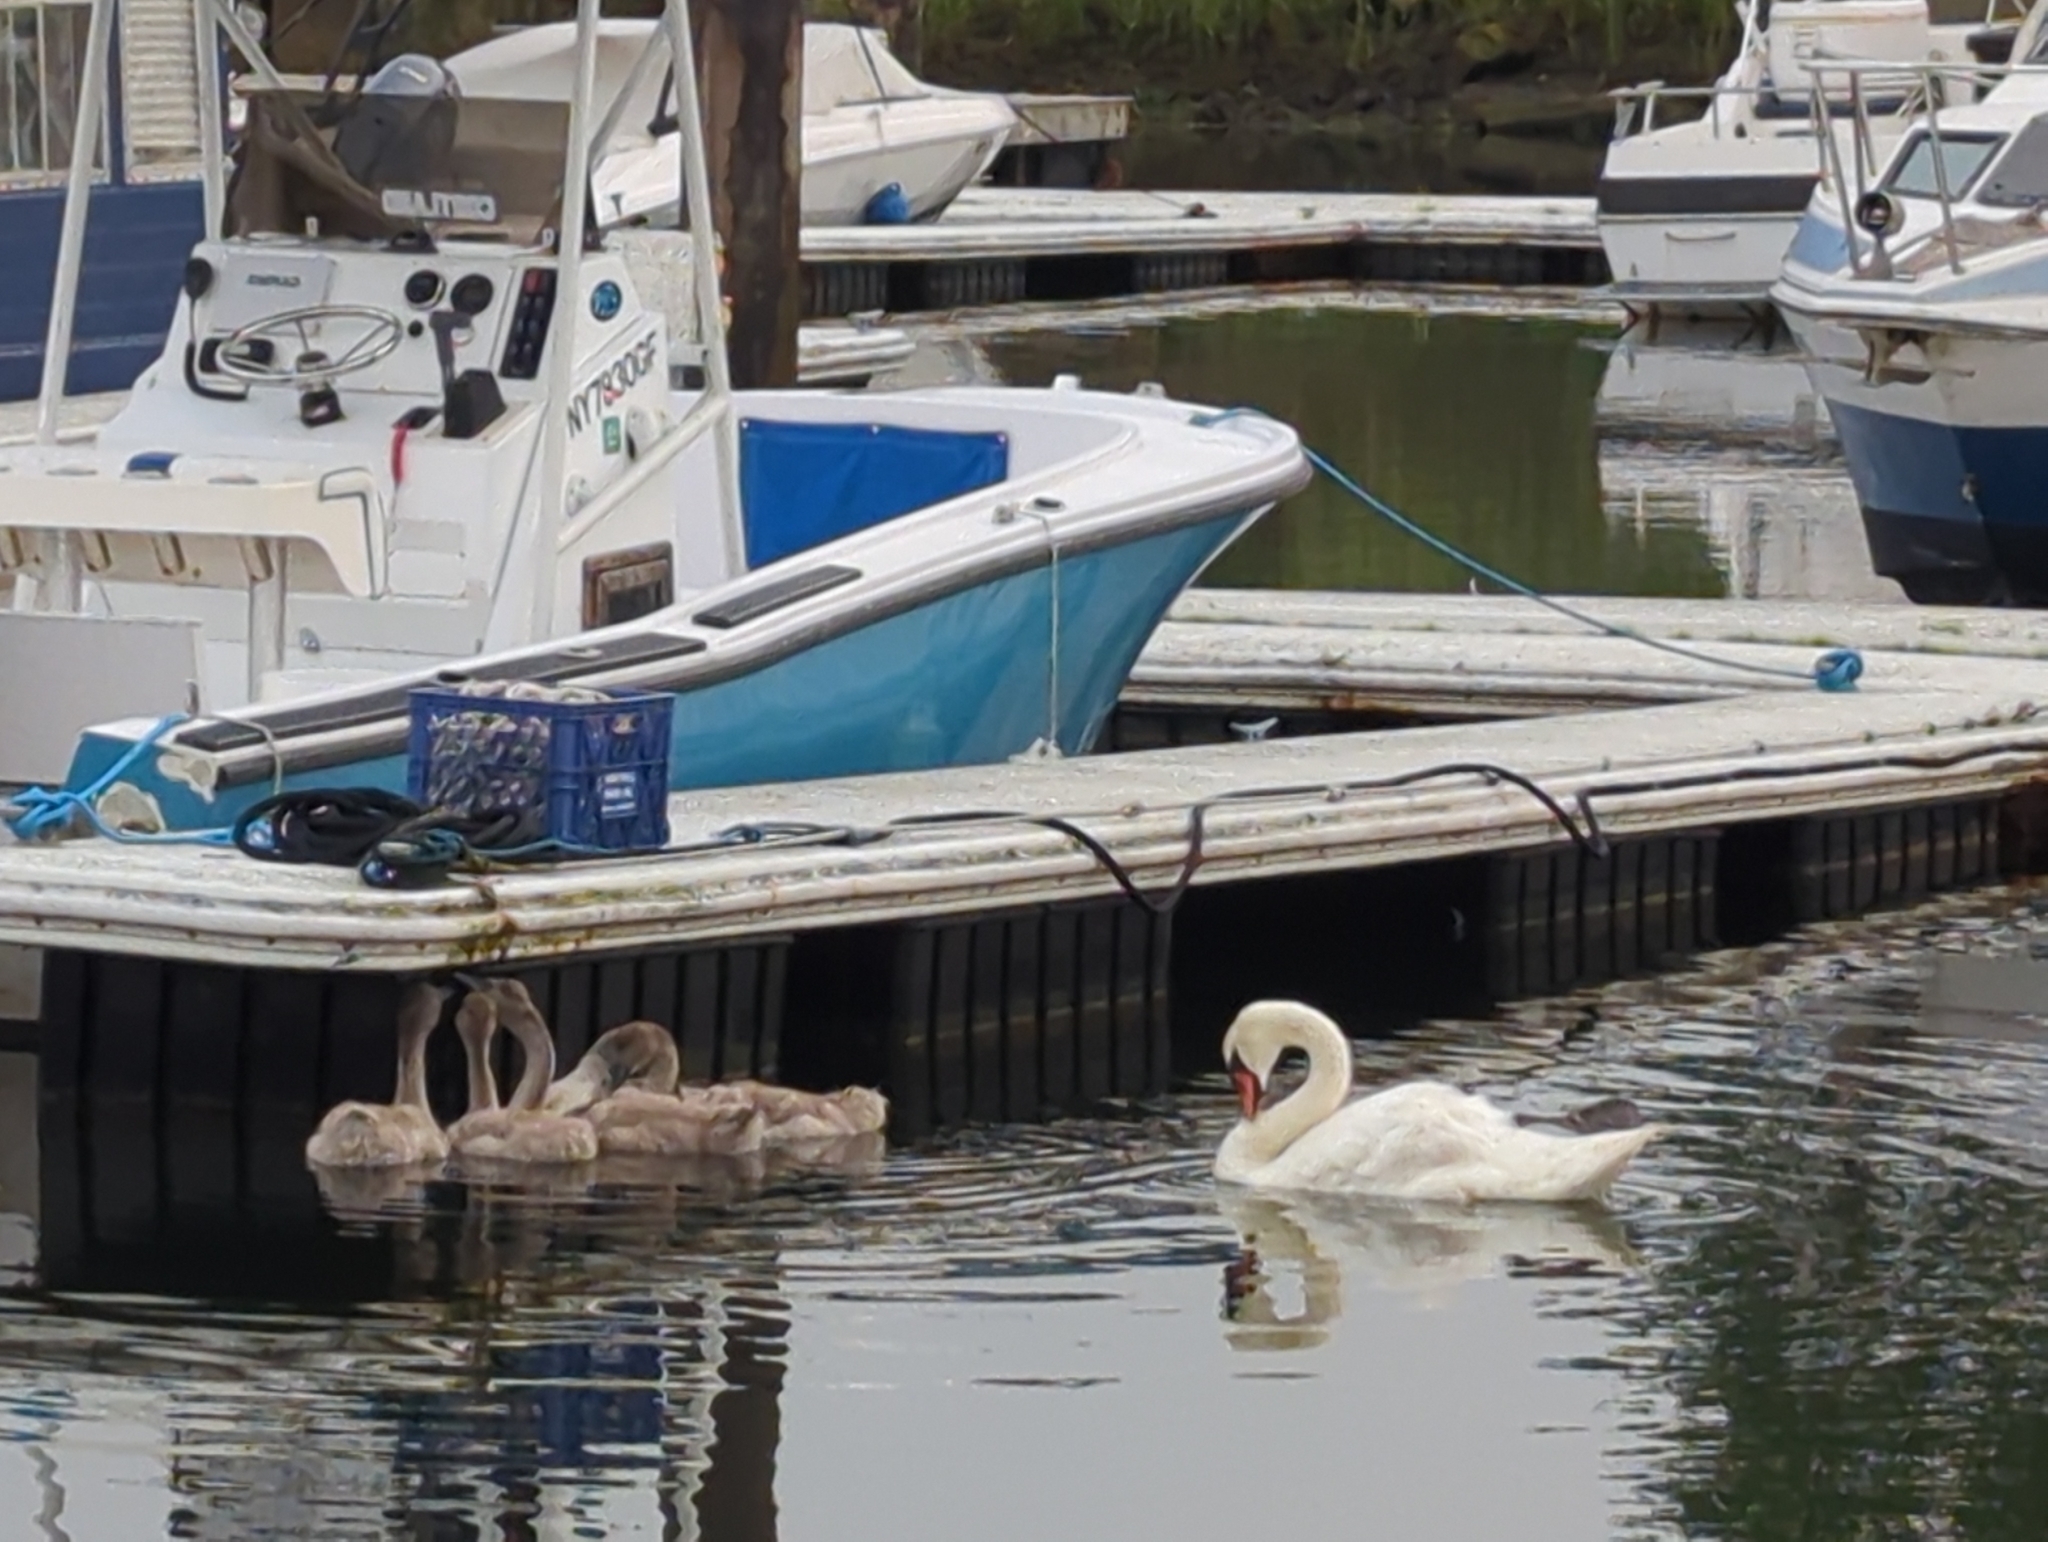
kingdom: Animalia
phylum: Chordata
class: Aves
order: Anseriformes
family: Anatidae
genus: Cygnus
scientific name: Cygnus olor
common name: Mute swan
